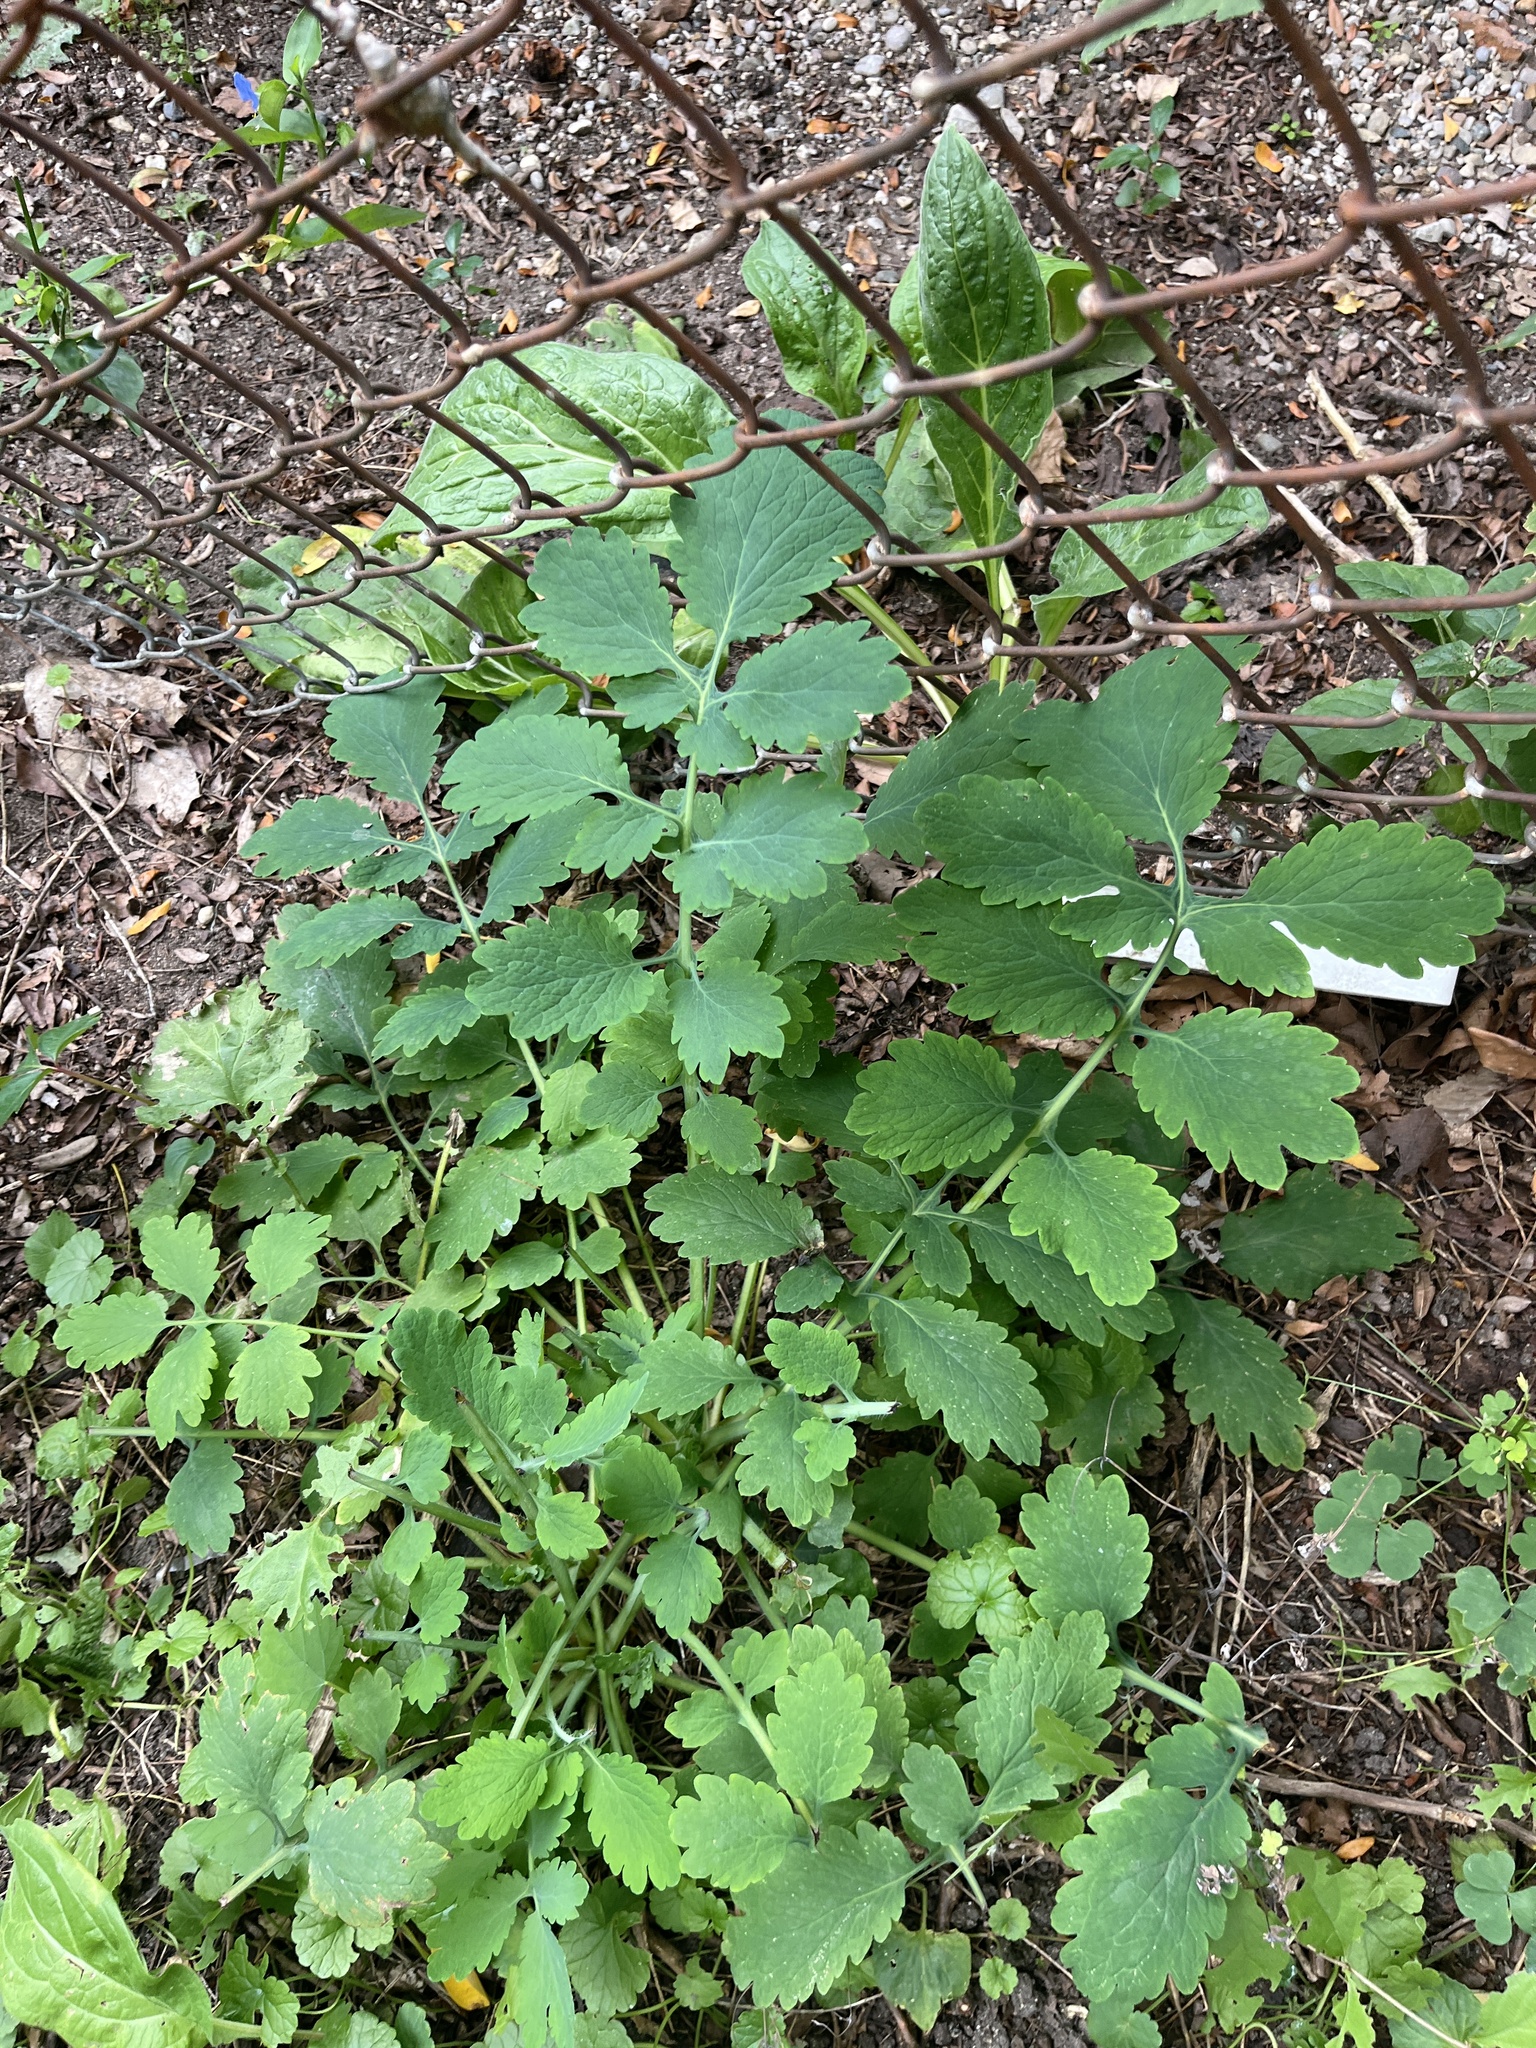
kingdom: Plantae
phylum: Tracheophyta
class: Magnoliopsida
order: Ranunculales
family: Papaveraceae
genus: Chelidonium
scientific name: Chelidonium majus
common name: Greater celandine
